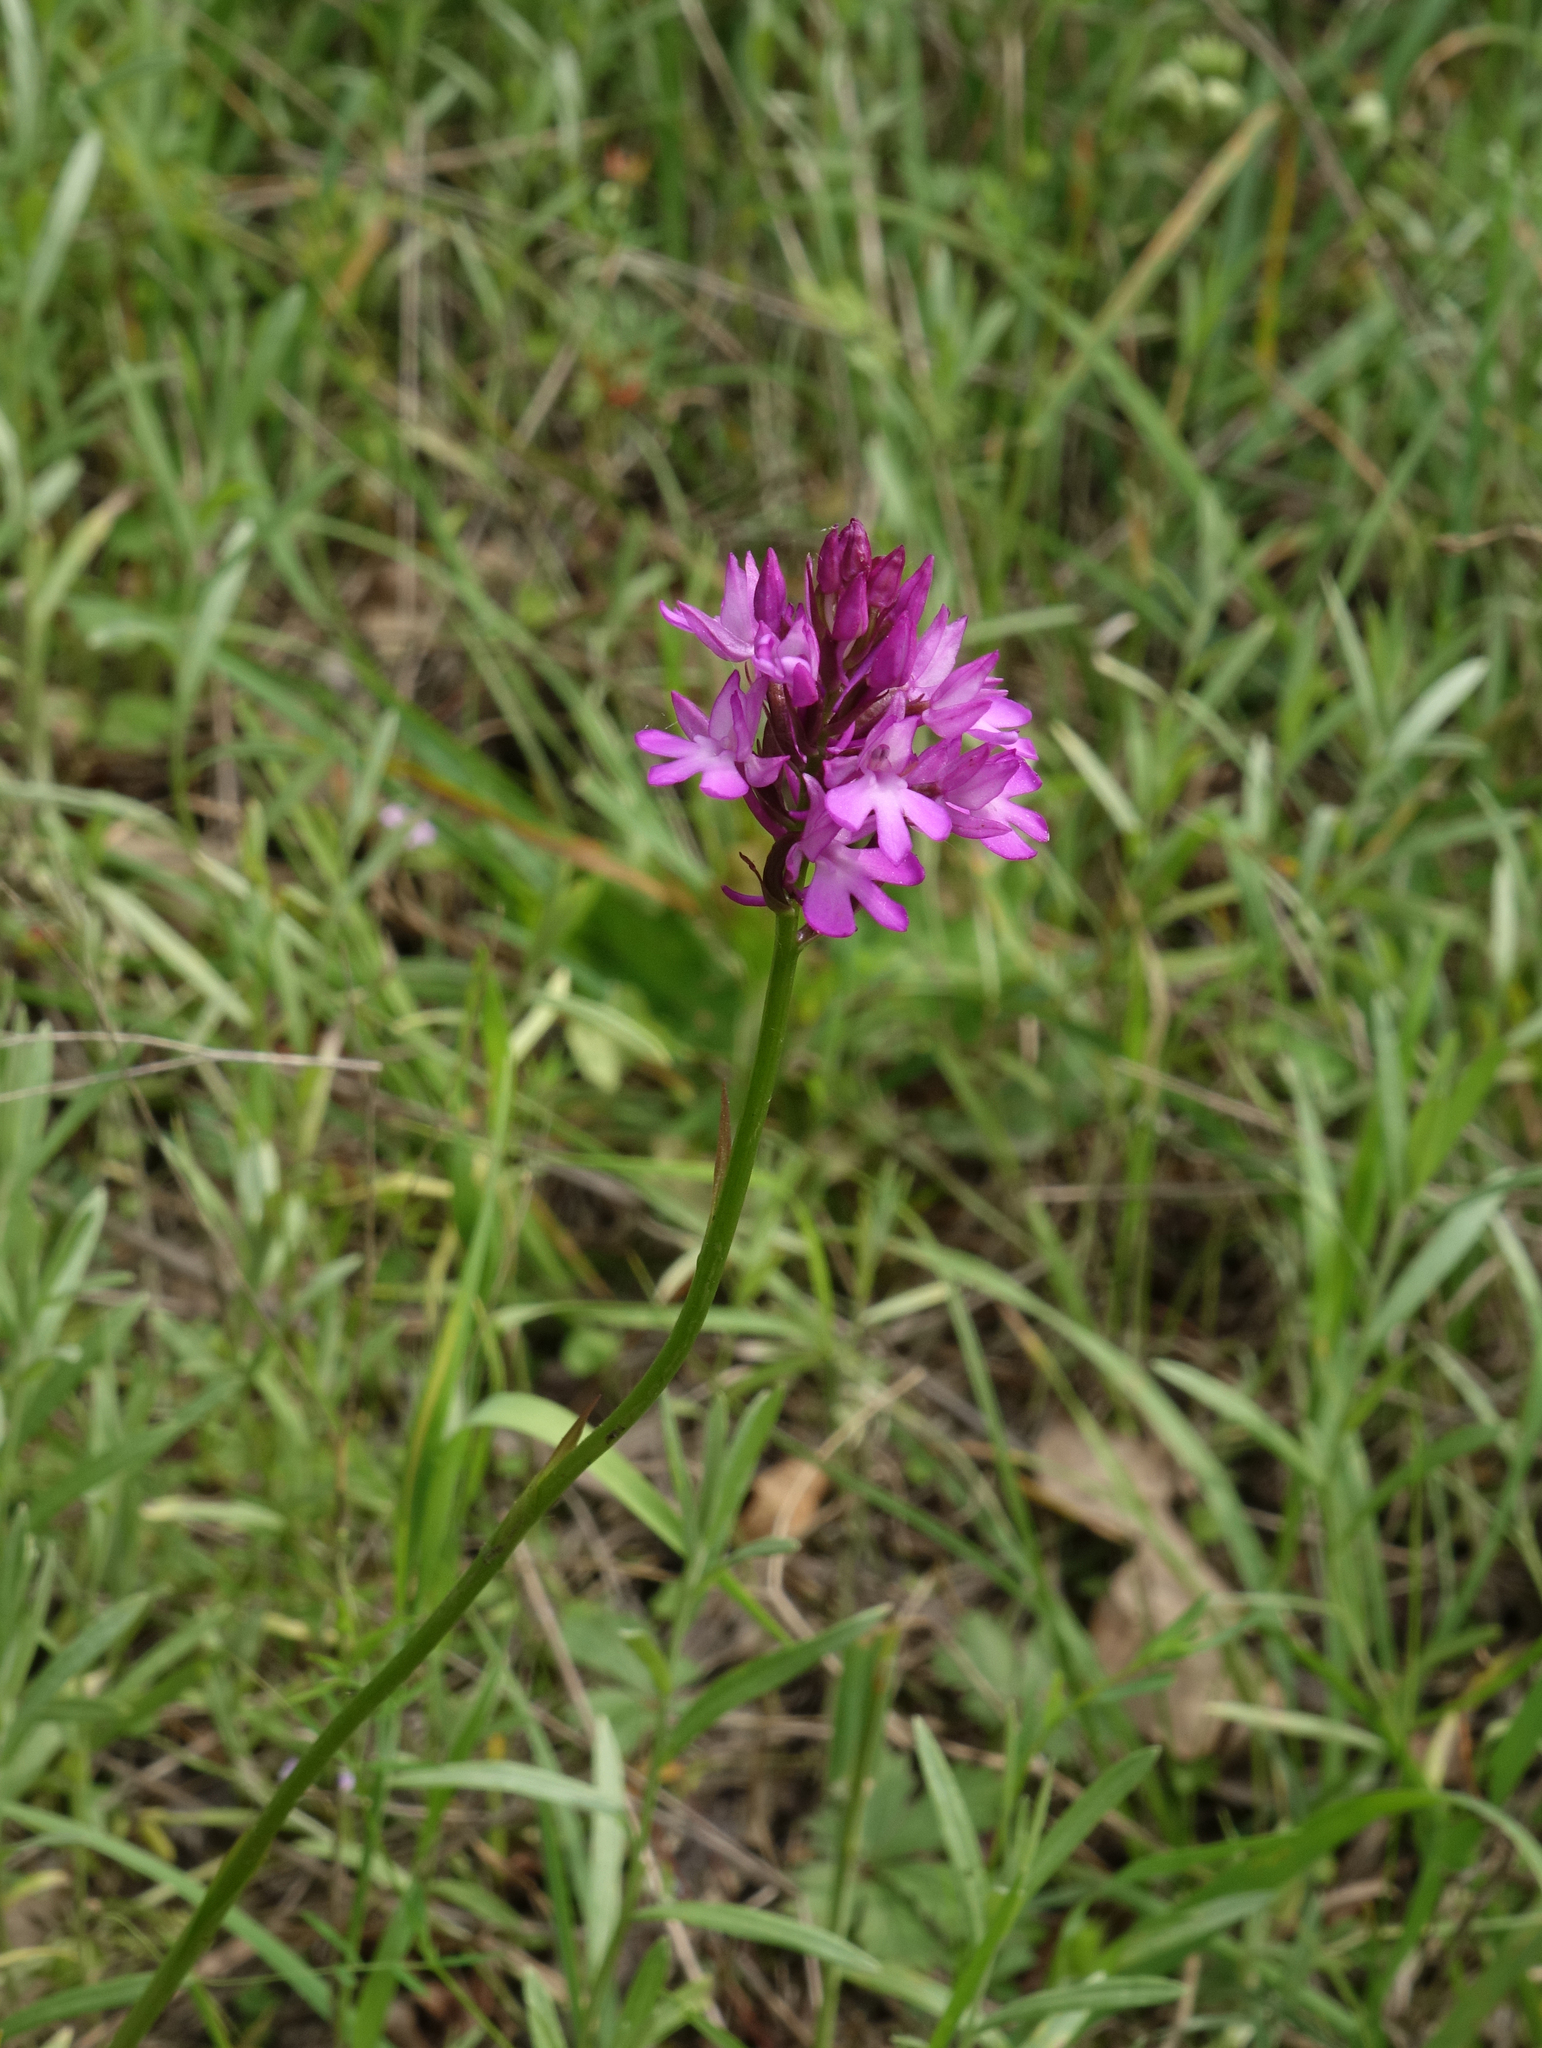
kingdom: Plantae
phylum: Tracheophyta
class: Liliopsida
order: Asparagales
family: Orchidaceae
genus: Anacamptis
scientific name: Anacamptis pyramidalis
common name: Pyramidal orchid
